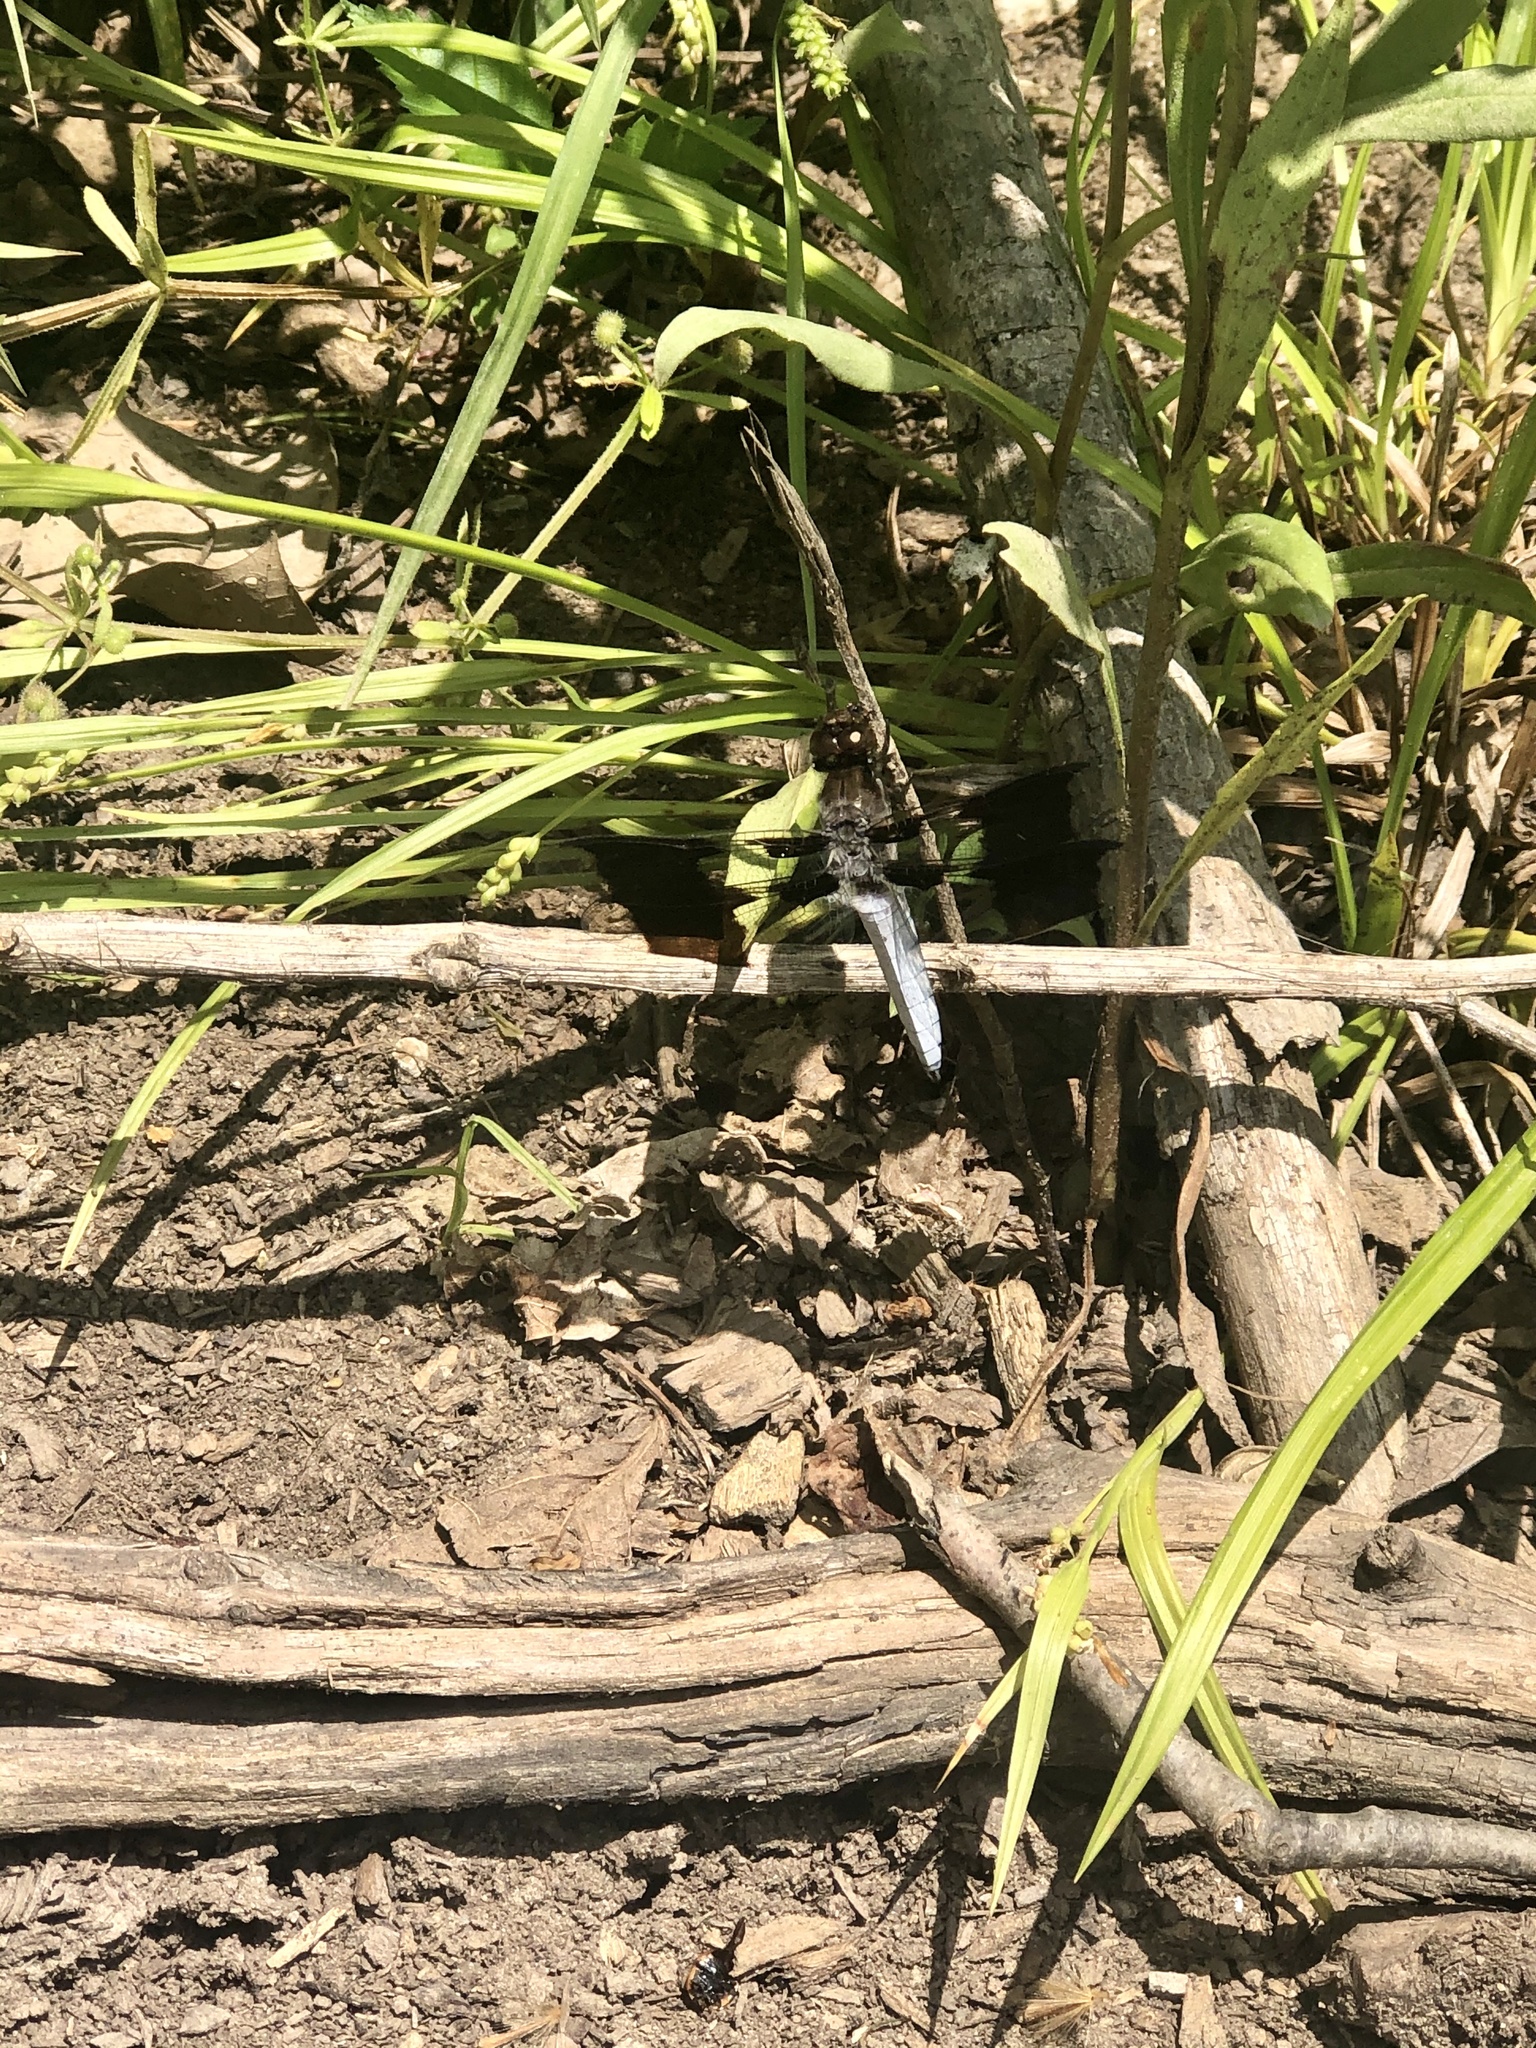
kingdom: Animalia
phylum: Arthropoda
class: Insecta
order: Odonata
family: Libellulidae
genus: Plathemis
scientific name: Plathemis lydia
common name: Common whitetail
